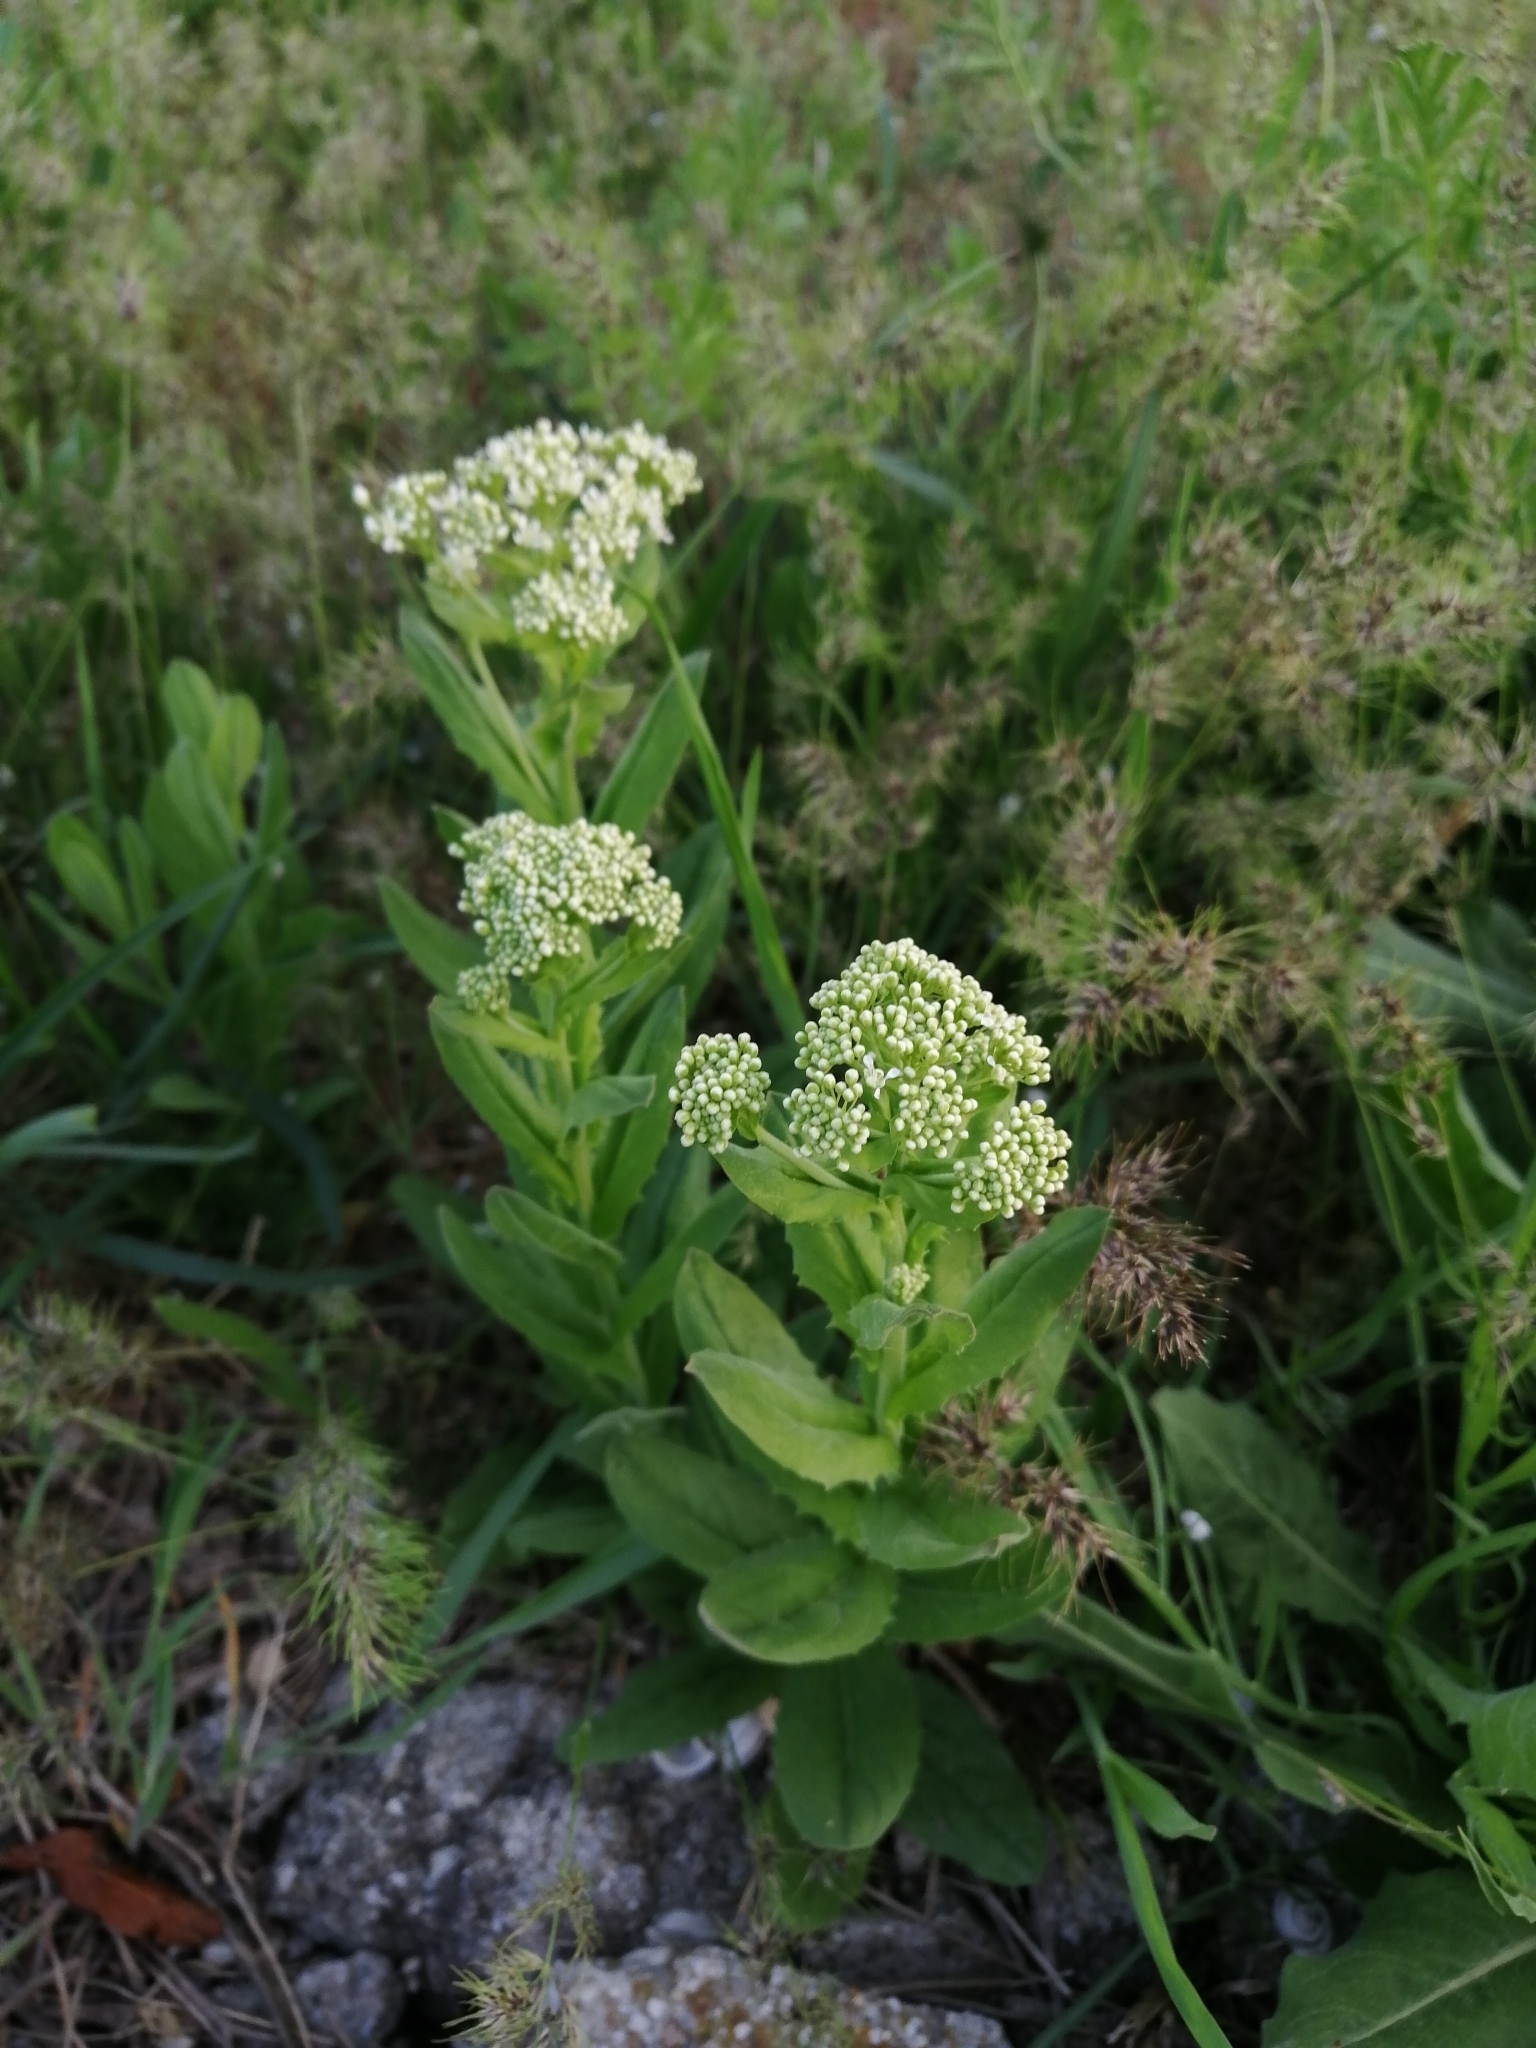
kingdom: Plantae
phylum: Tracheophyta
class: Magnoliopsida
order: Brassicales
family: Brassicaceae
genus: Lepidium
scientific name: Lepidium draba
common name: Hoary cress
